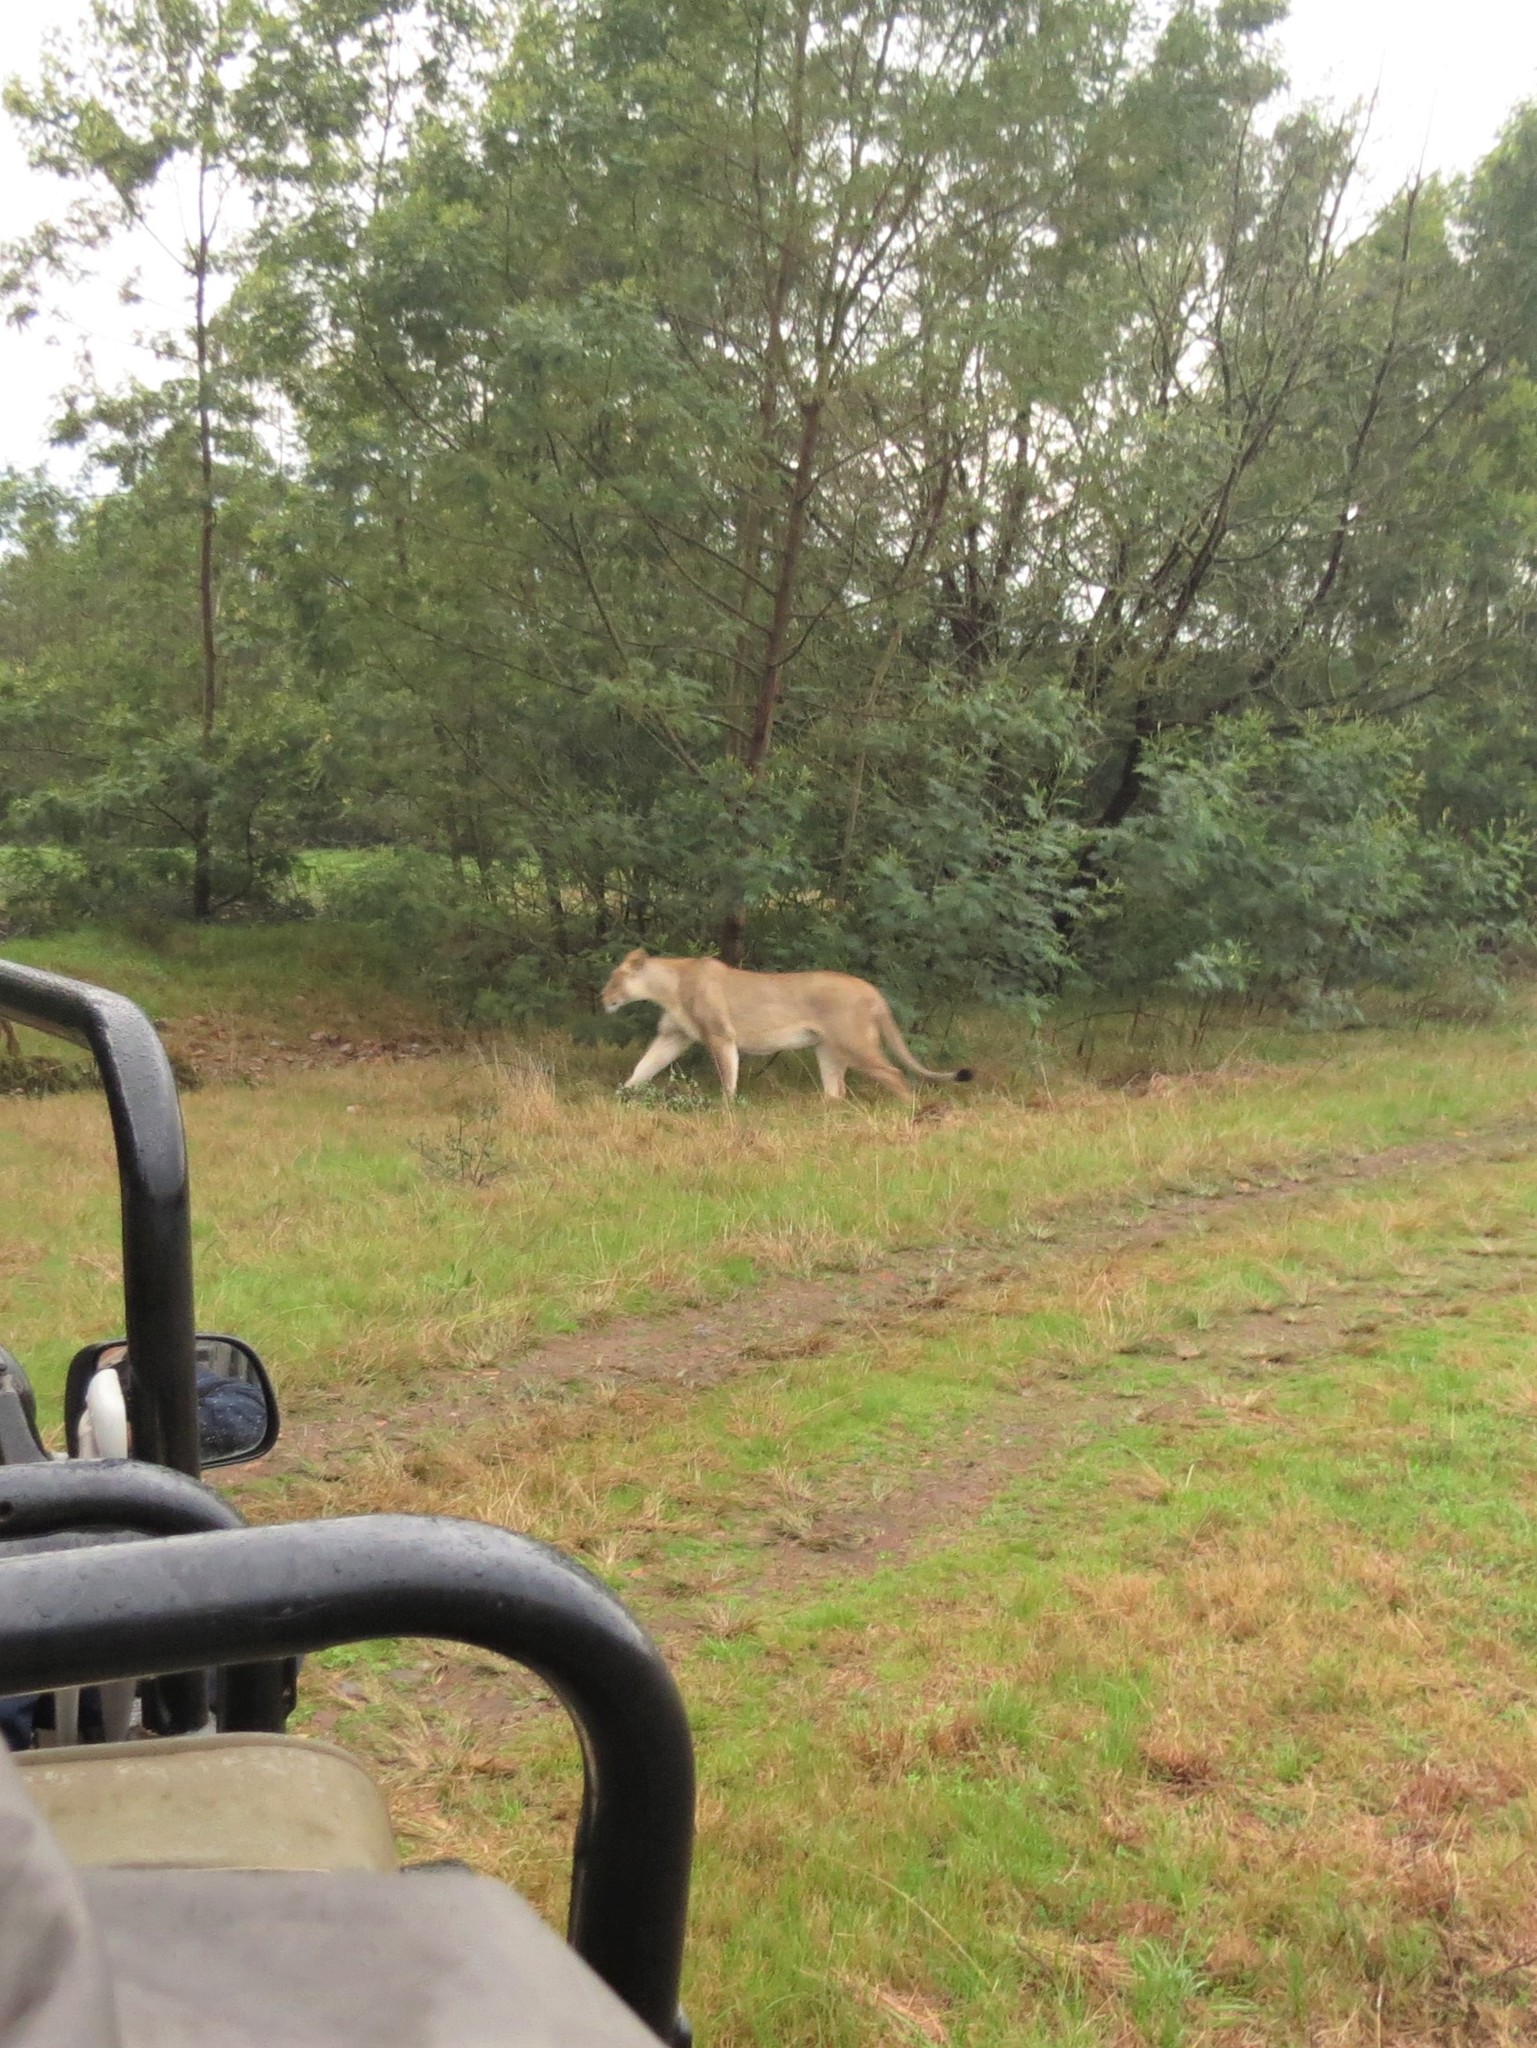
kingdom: Animalia
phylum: Chordata
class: Mammalia
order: Carnivora
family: Felidae
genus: Panthera
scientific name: Panthera leo
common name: Lion
